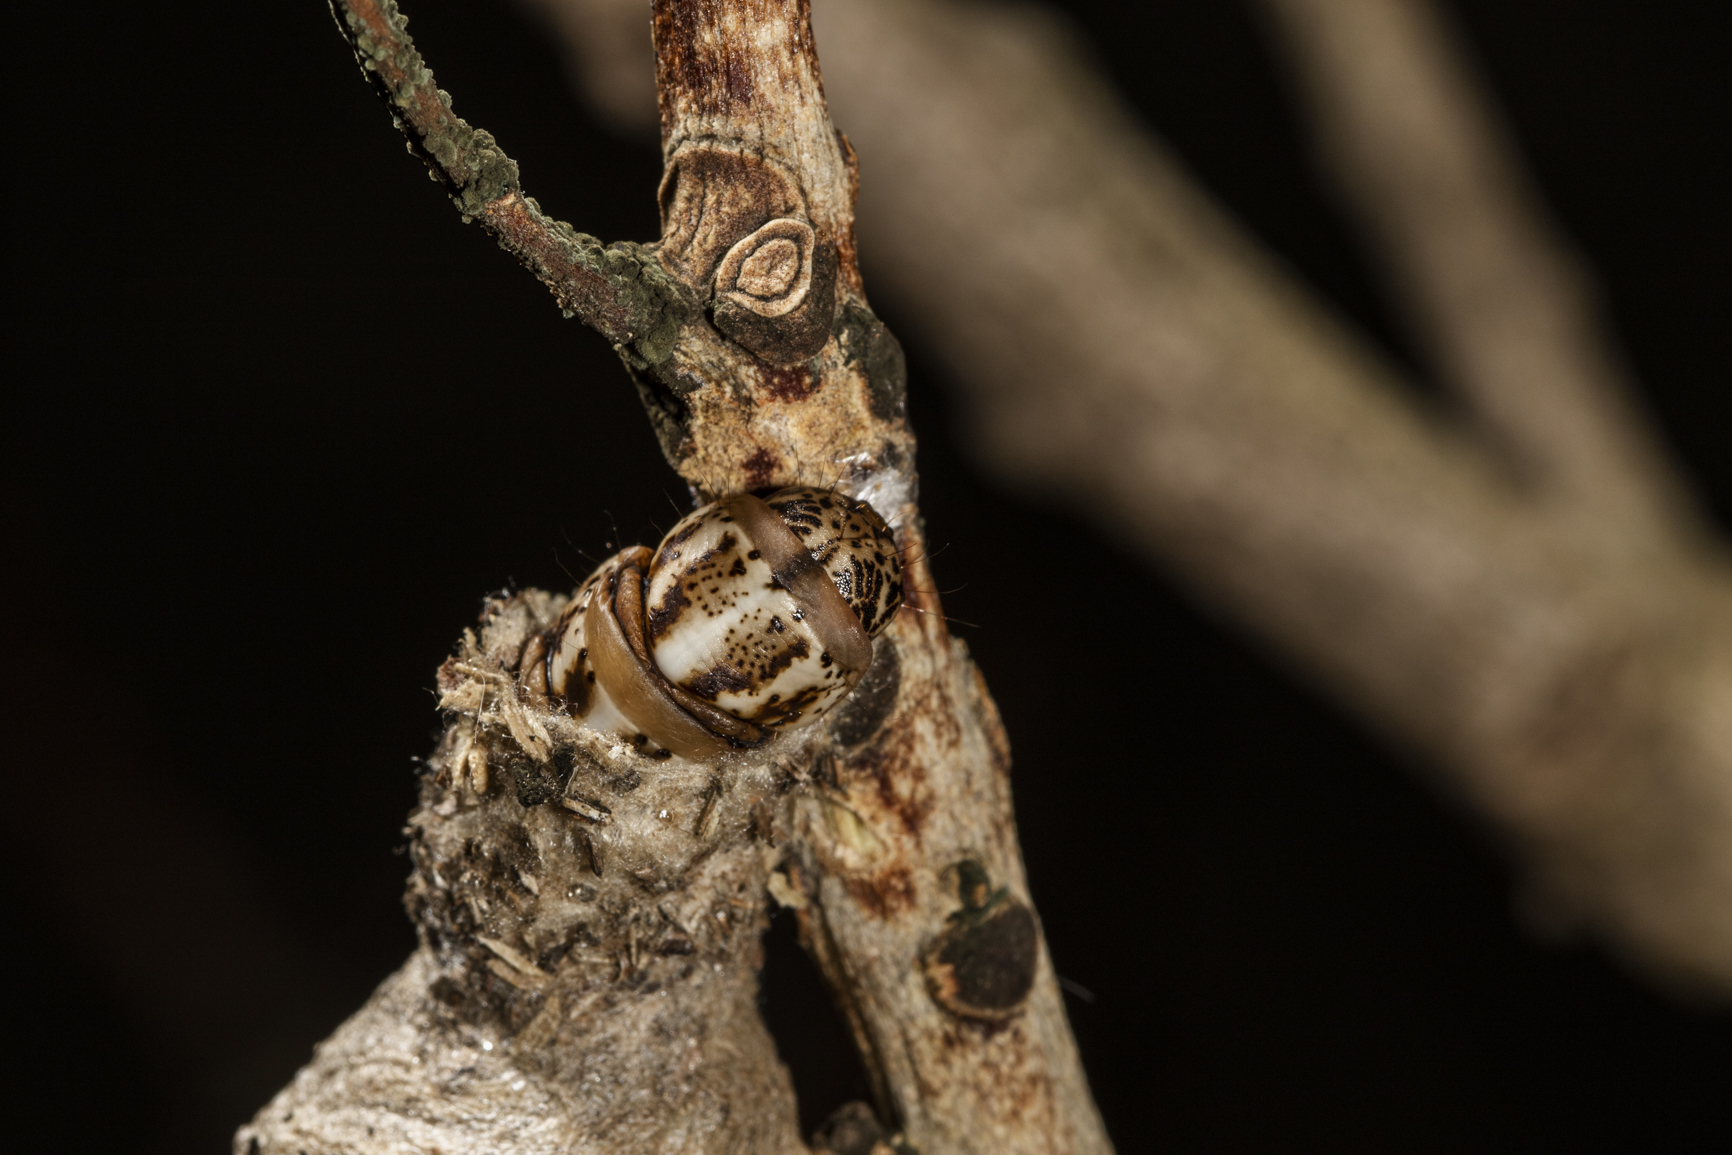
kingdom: Animalia
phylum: Arthropoda
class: Insecta
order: Lepidoptera
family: Psychidae
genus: Oiketicus
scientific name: Oiketicus kirbyi
